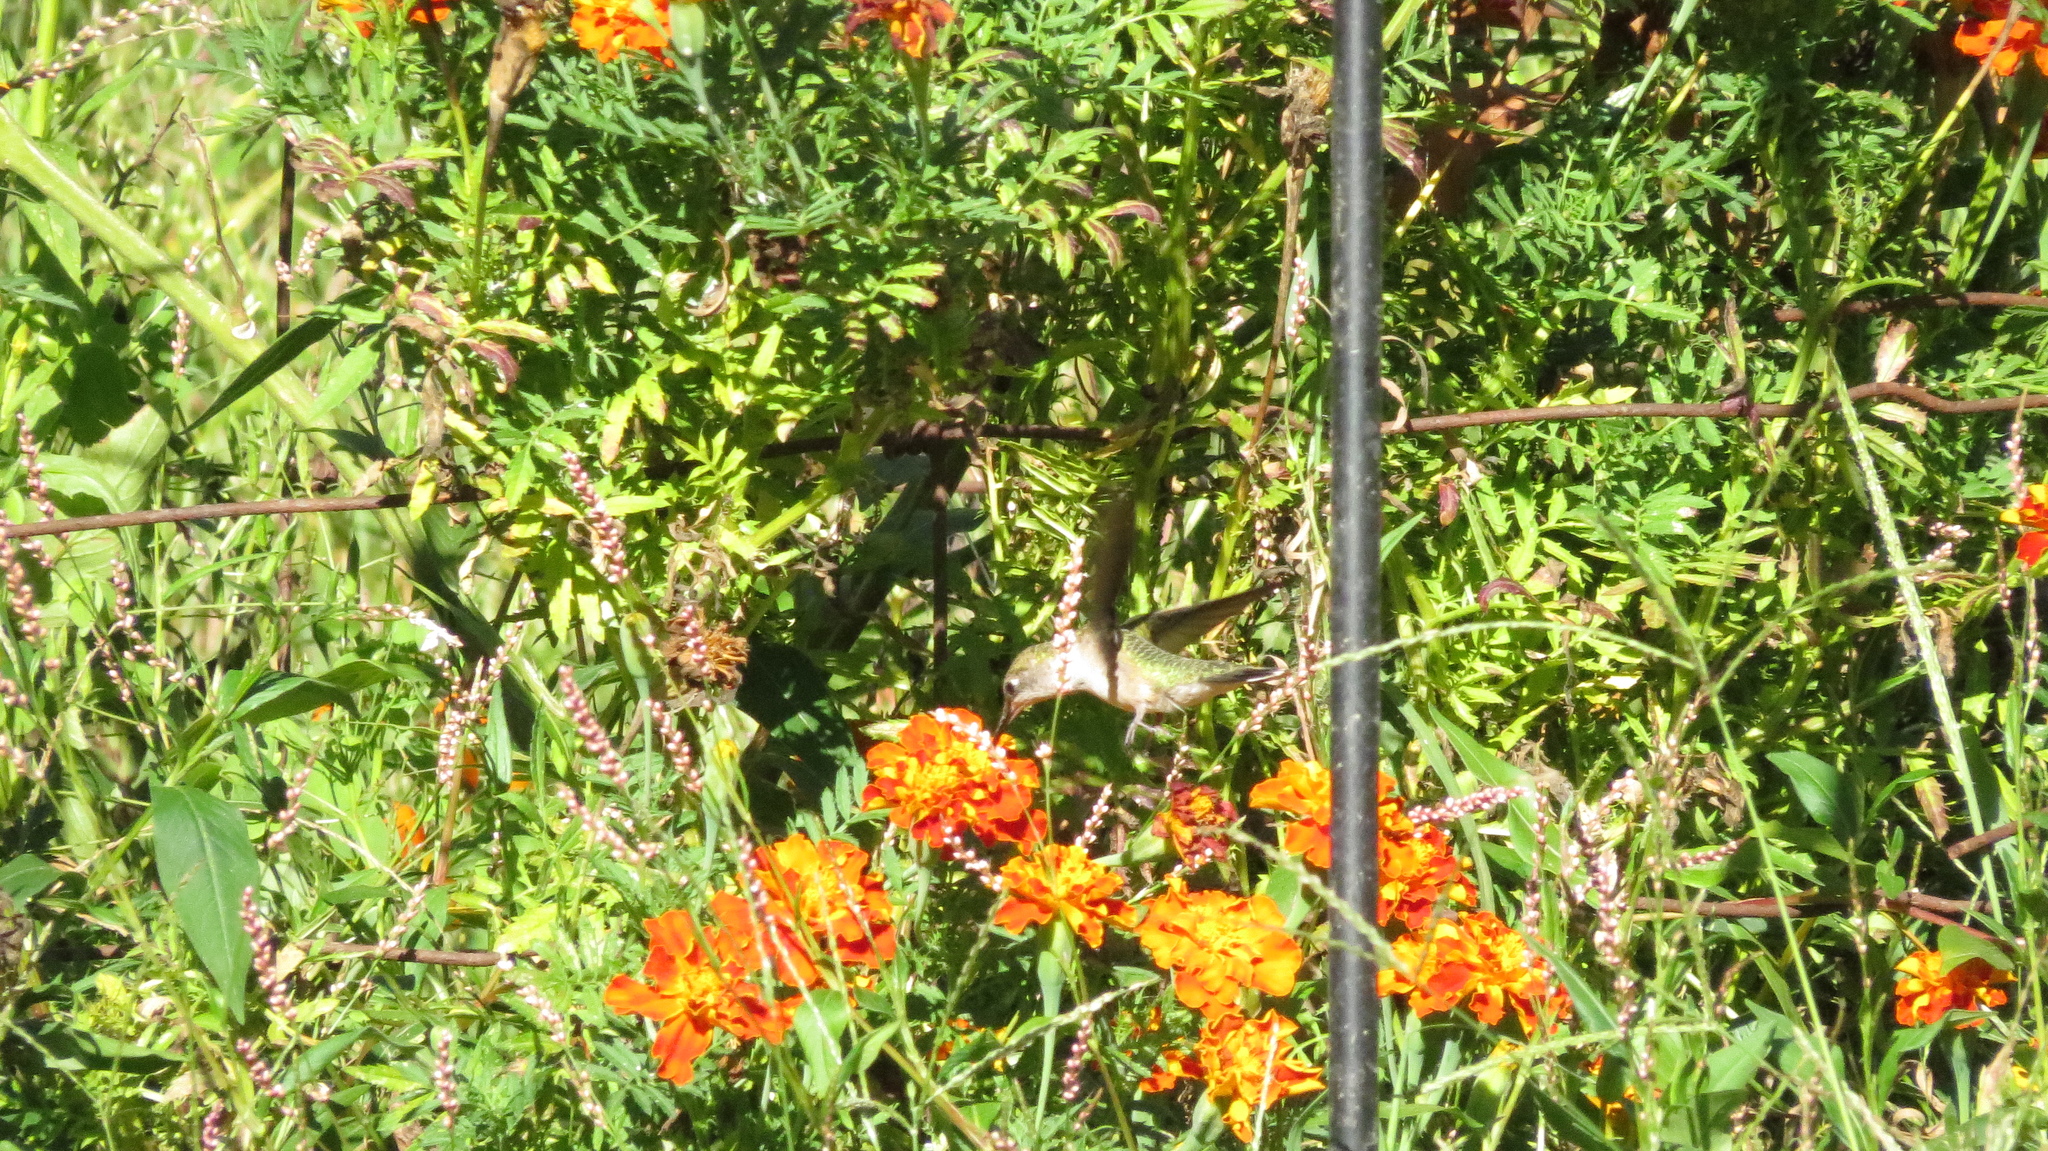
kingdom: Animalia
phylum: Chordata
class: Aves
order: Apodiformes
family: Trochilidae
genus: Archilochus
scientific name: Archilochus colubris
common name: Ruby-throated hummingbird
